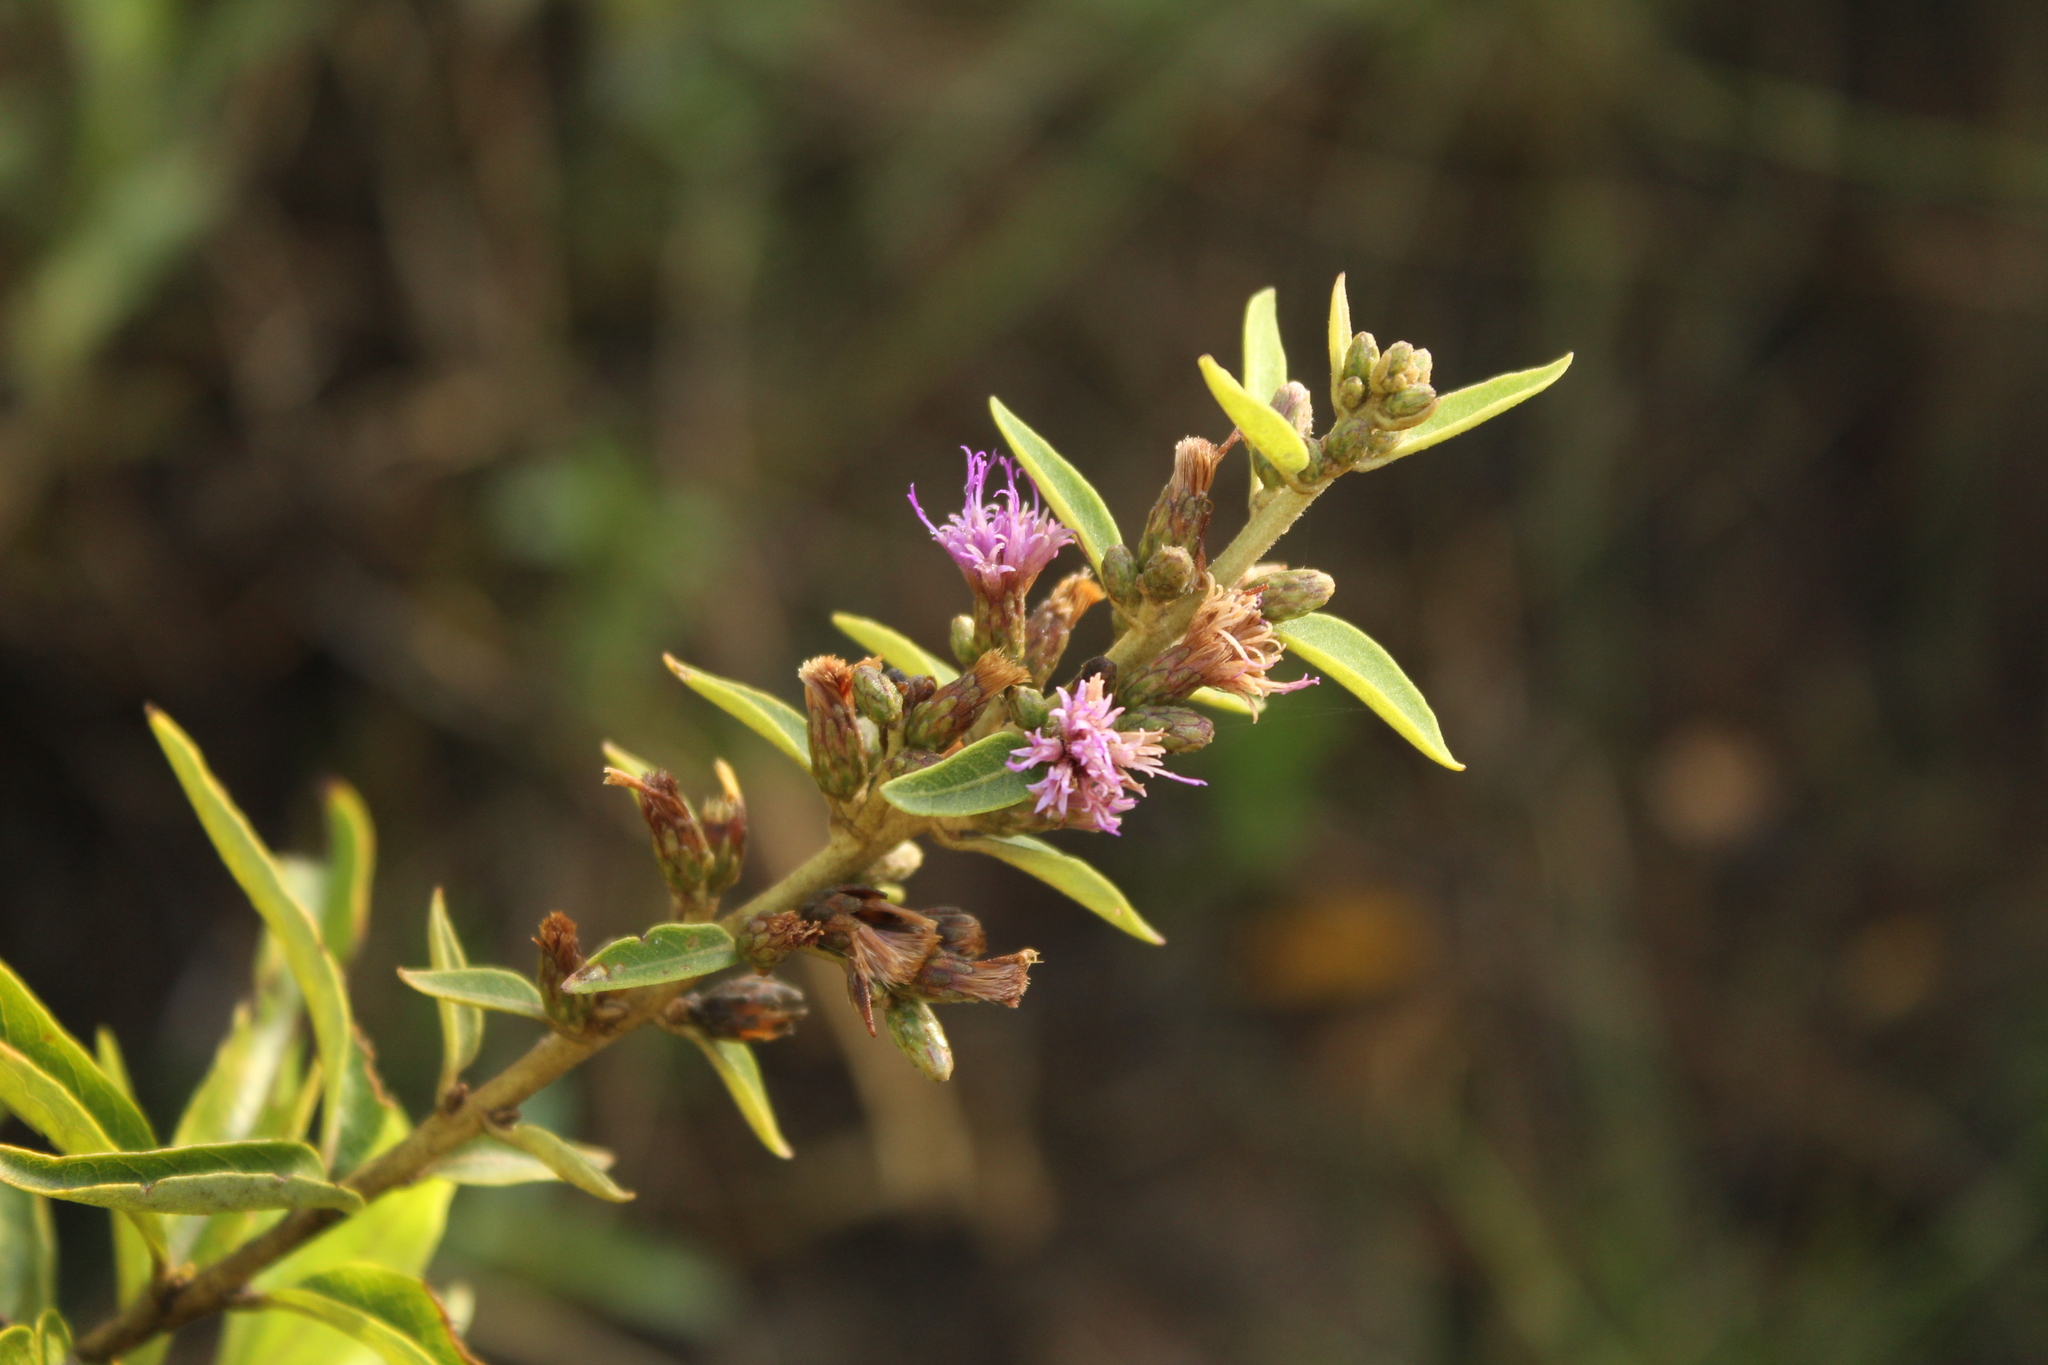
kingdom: Plantae
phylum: Tracheophyta
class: Magnoliopsida
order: Asterales
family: Asteraceae
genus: Lepidaploa
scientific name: Lepidaploa karstenii
